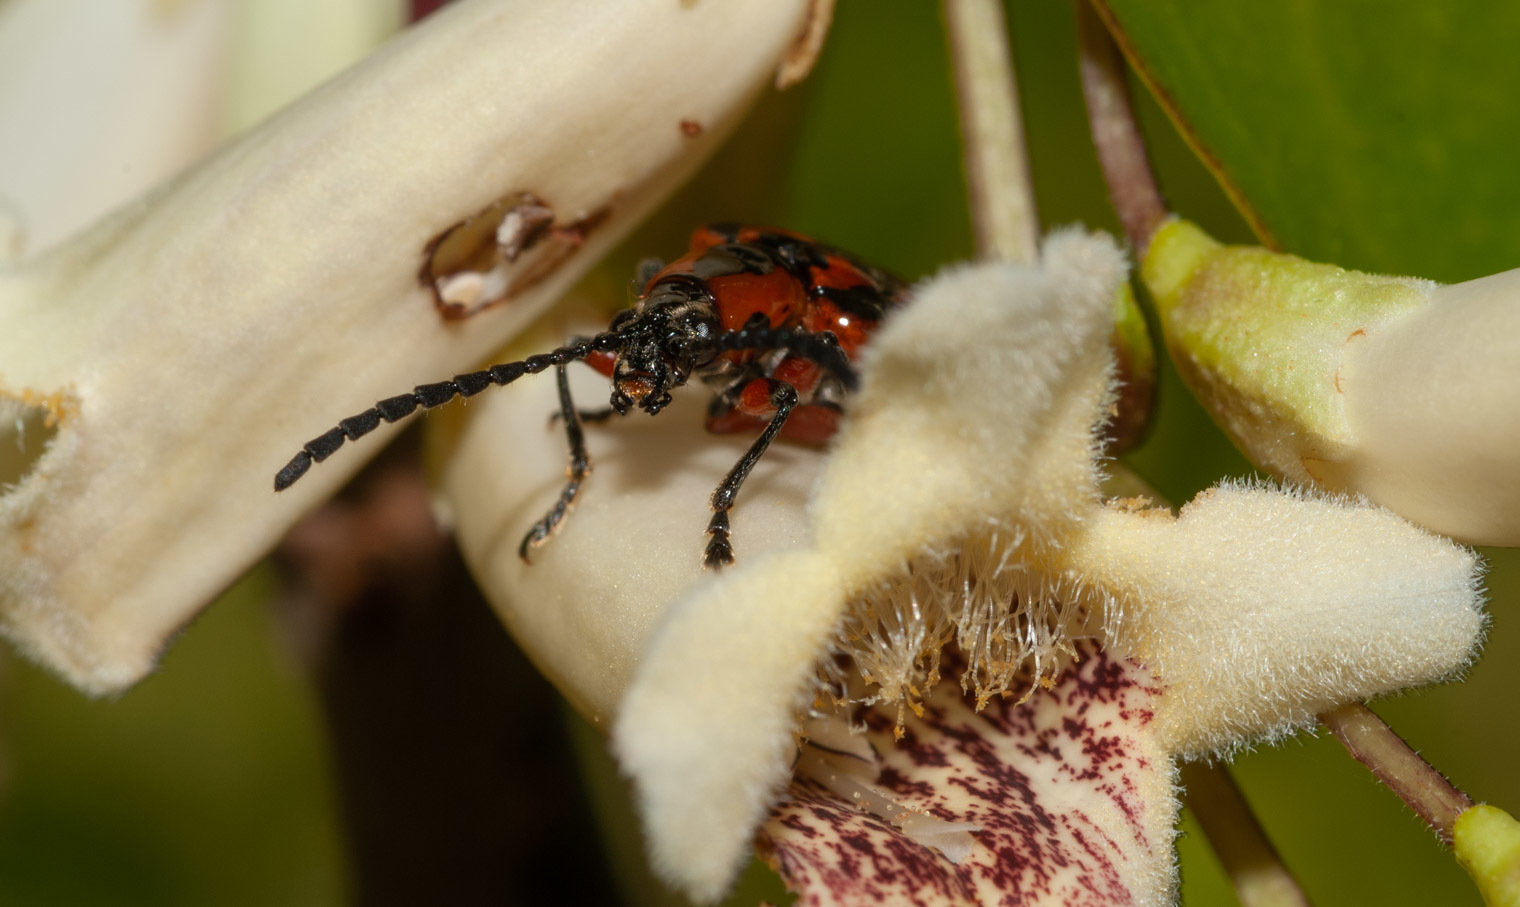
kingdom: Animalia
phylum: Arthropoda
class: Insecta
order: Coleoptera
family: Chrysomelidae
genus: Mecynodera
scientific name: Mecynodera
